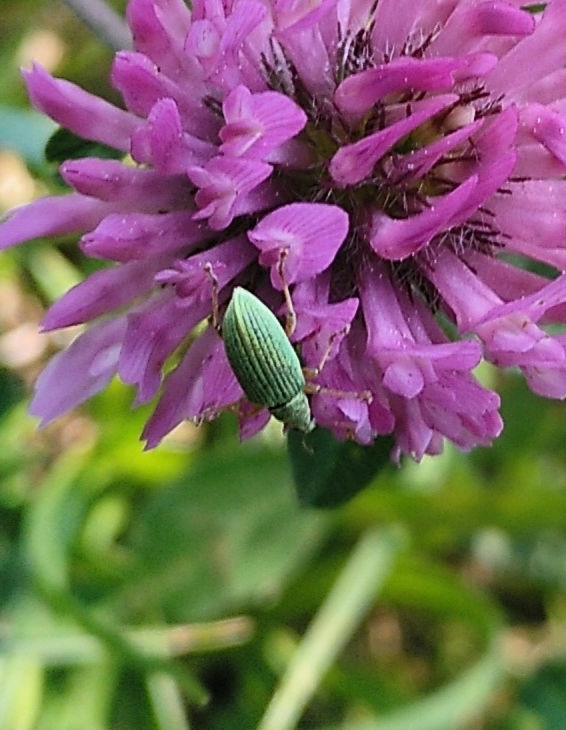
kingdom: Animalia
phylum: Arthropoda
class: Insecta
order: Coleoptera
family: Curculionidae
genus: Polydrusus
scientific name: Polydrusus formosus
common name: Weevil
